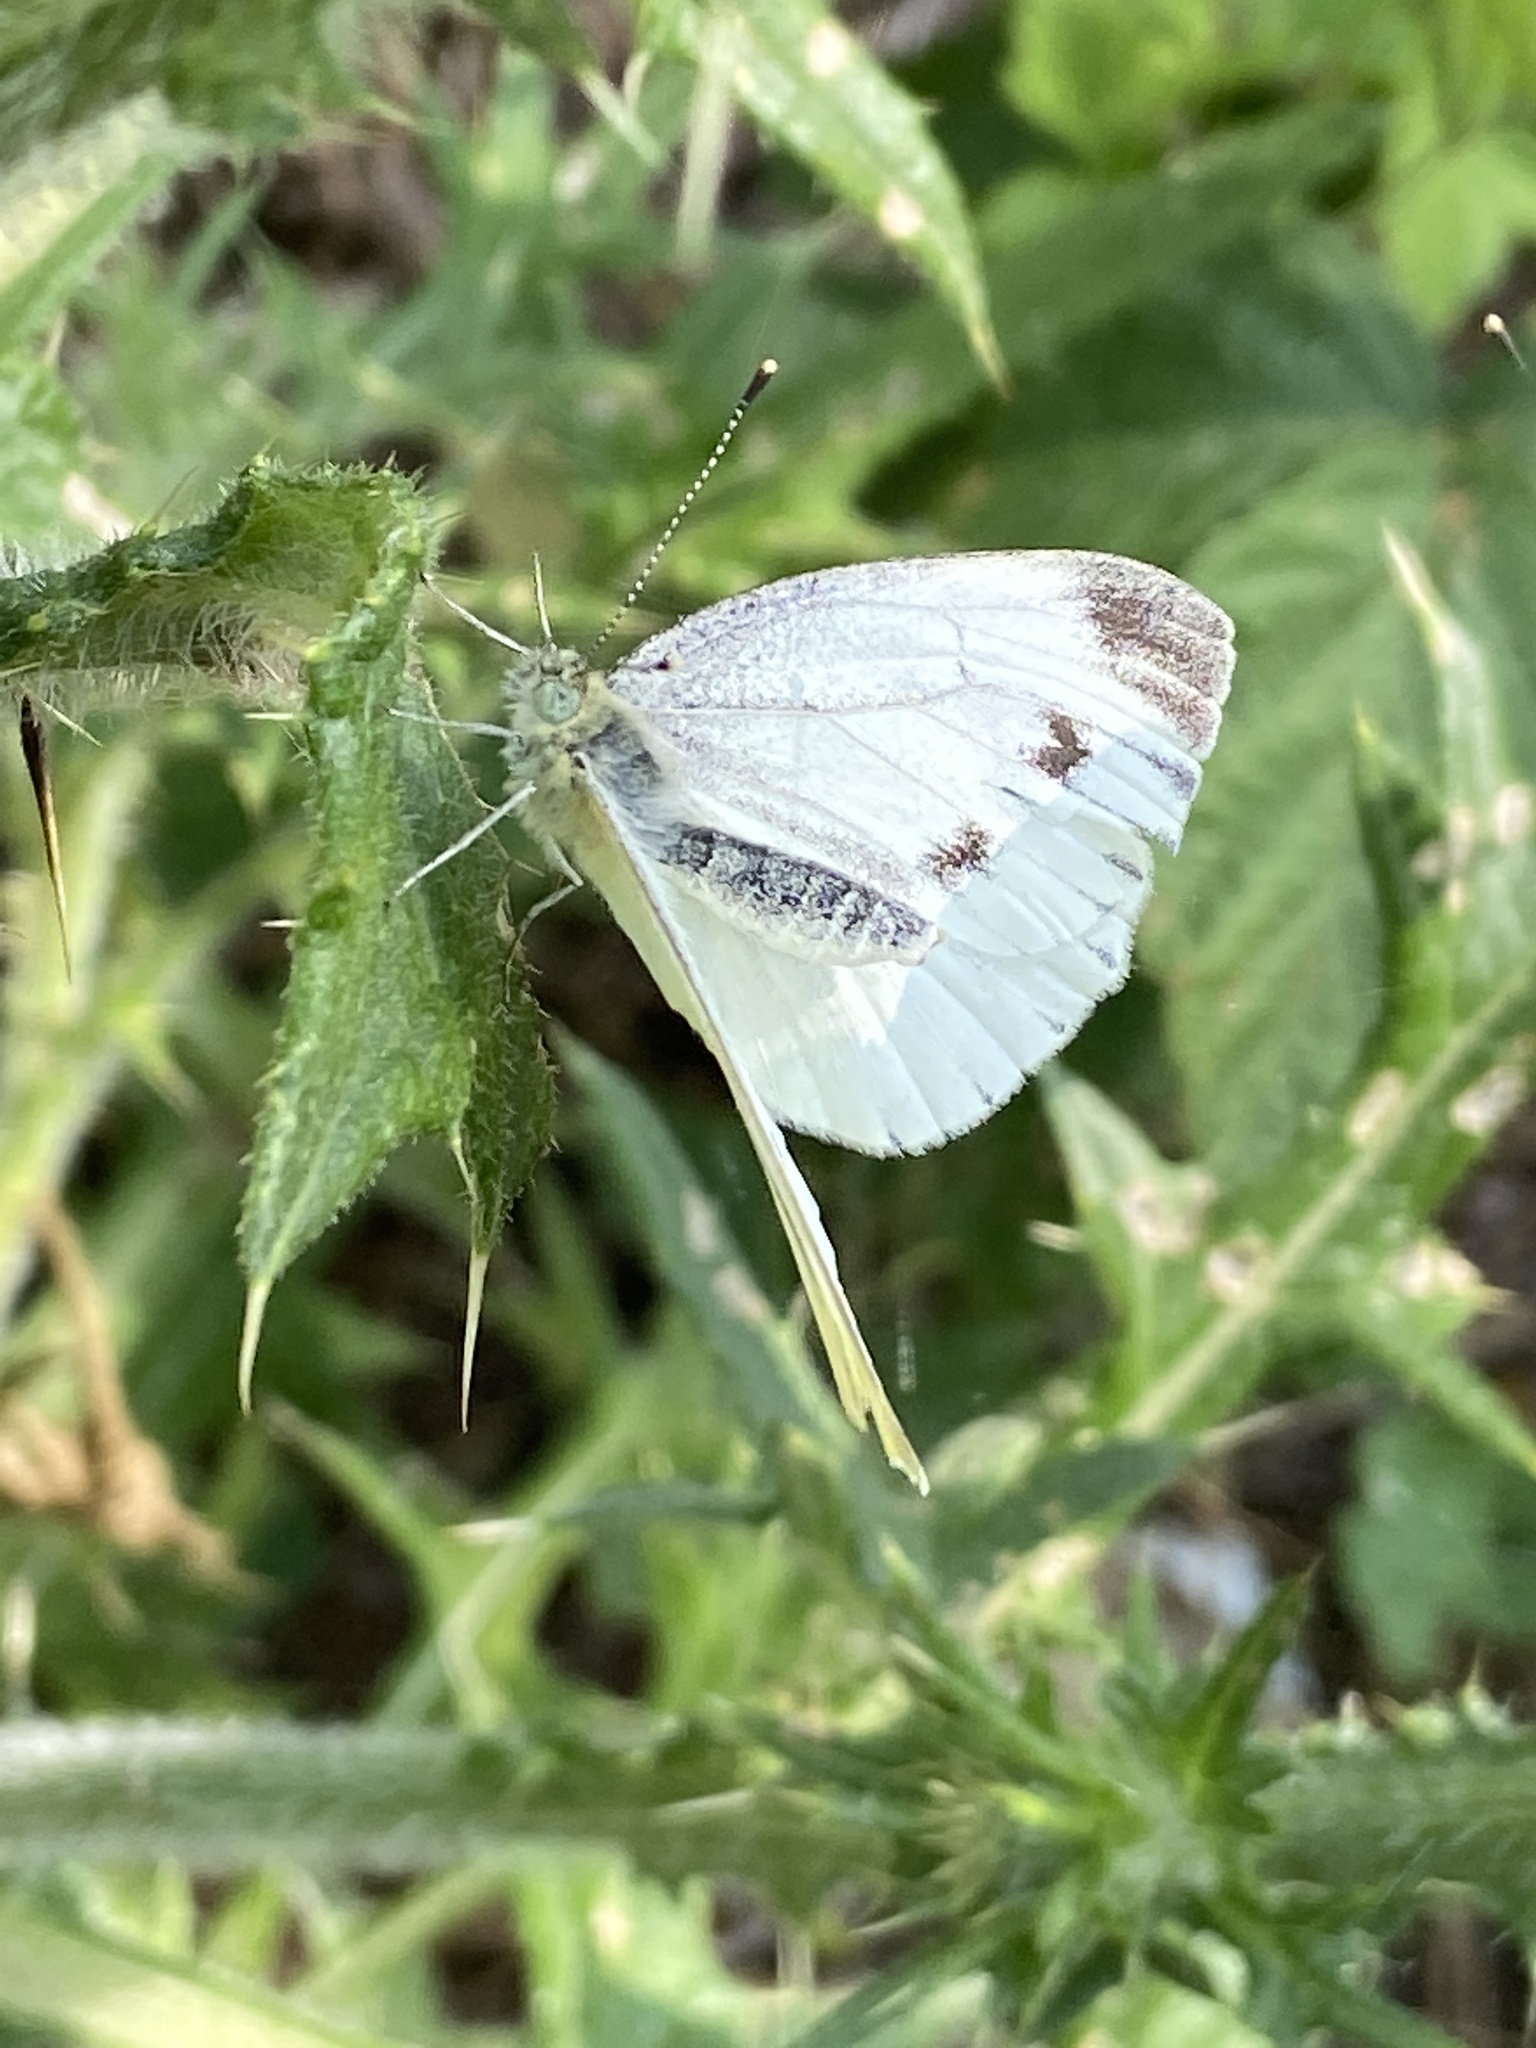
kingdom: Animalia
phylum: Arthropoda
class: Insecta
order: Lepidoptera
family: Pieridae
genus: Pieris
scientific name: Pieris napi
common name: Green-veined white
